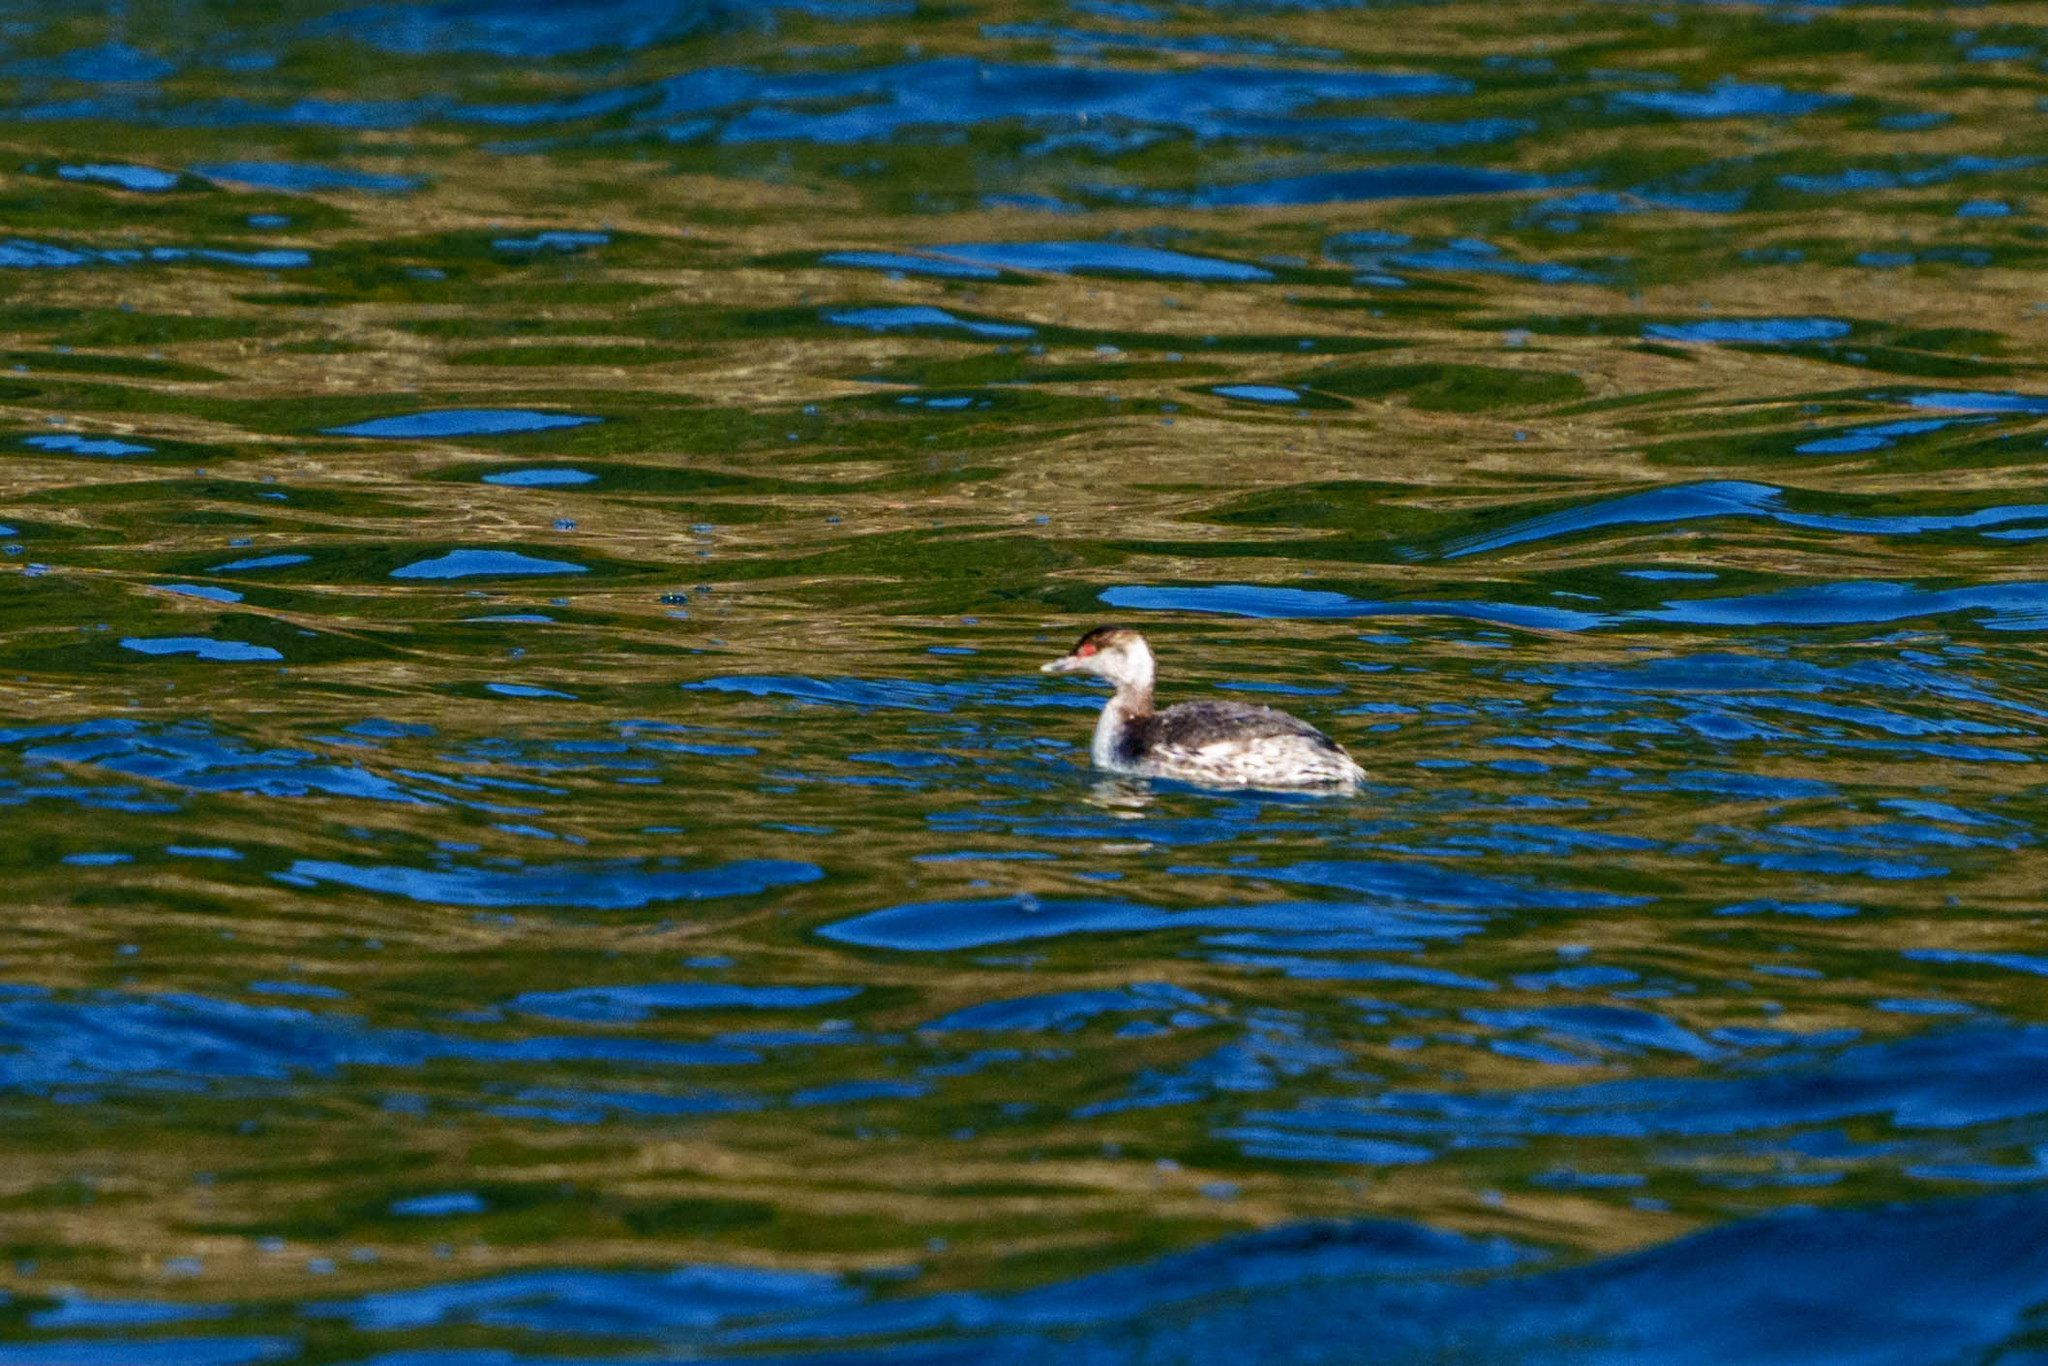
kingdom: Animalia
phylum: Chordata
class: Aves
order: Podicipediformes
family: Podicipedidae
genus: Podiceps
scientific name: Podiceps auritus
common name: Horned grebe
